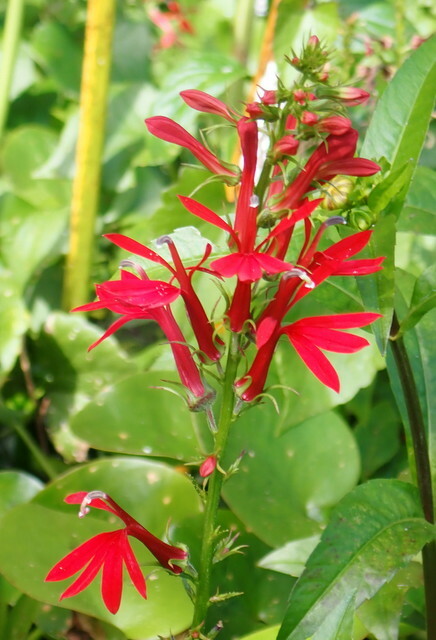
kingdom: Plantae
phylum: Tracheophyta
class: Magnoliopsida
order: Asterales
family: Campanulaceae
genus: Lobelia
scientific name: Lobelia cardinalis
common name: Cardinal flower
